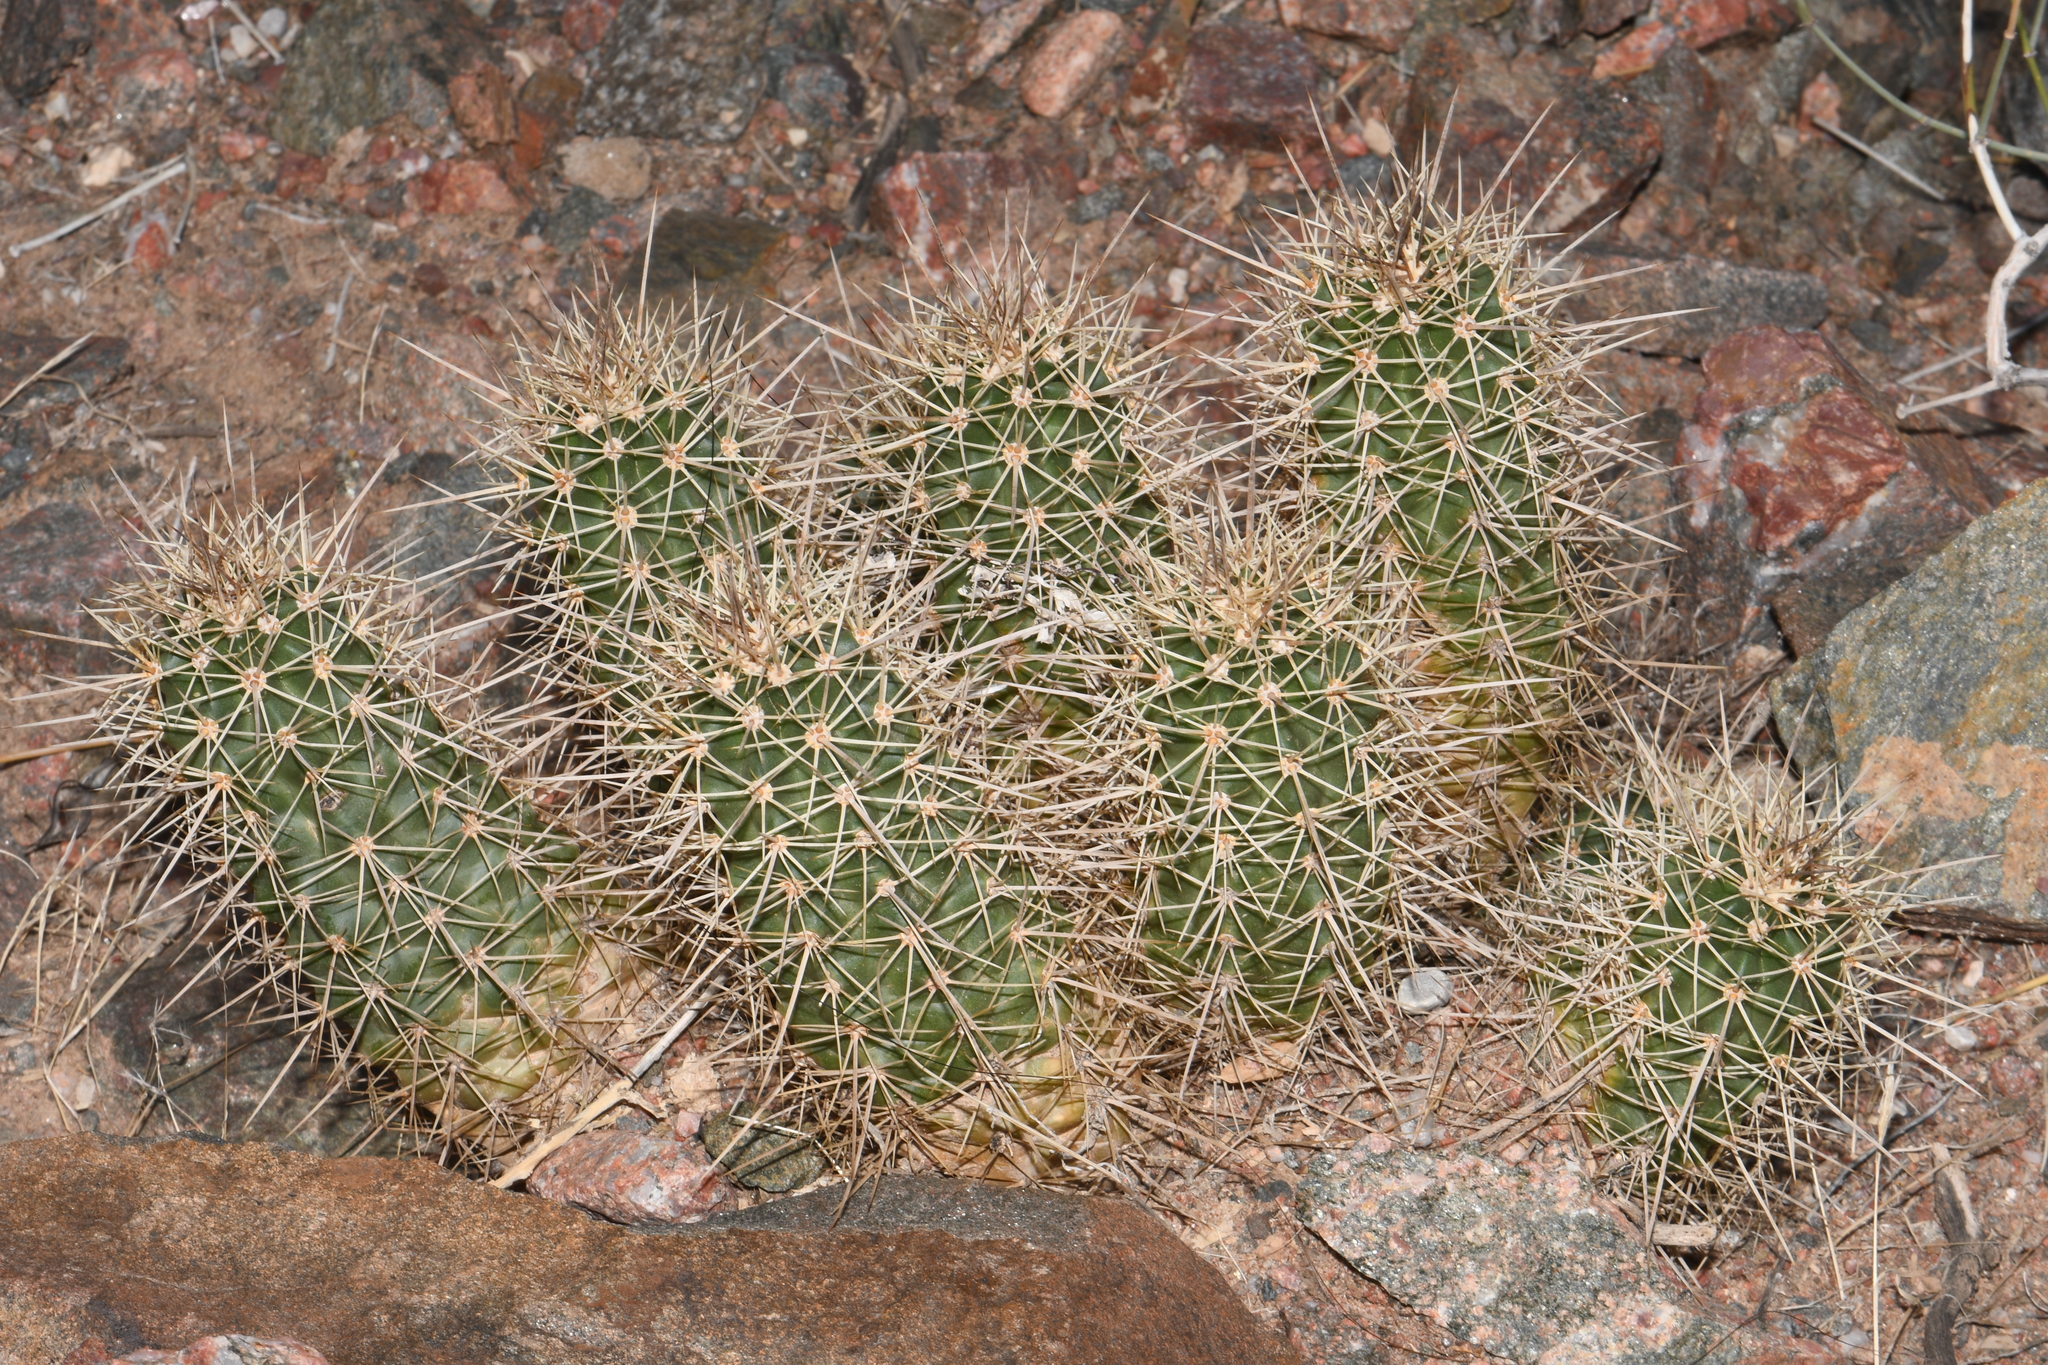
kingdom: Plantae
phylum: Tracheophyta
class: Magnoliopsida
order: Caryophyllales
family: Cactaceae
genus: Echinocereus
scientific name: Echinocereus triglochidiatus
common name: Claretcup hedgehog
